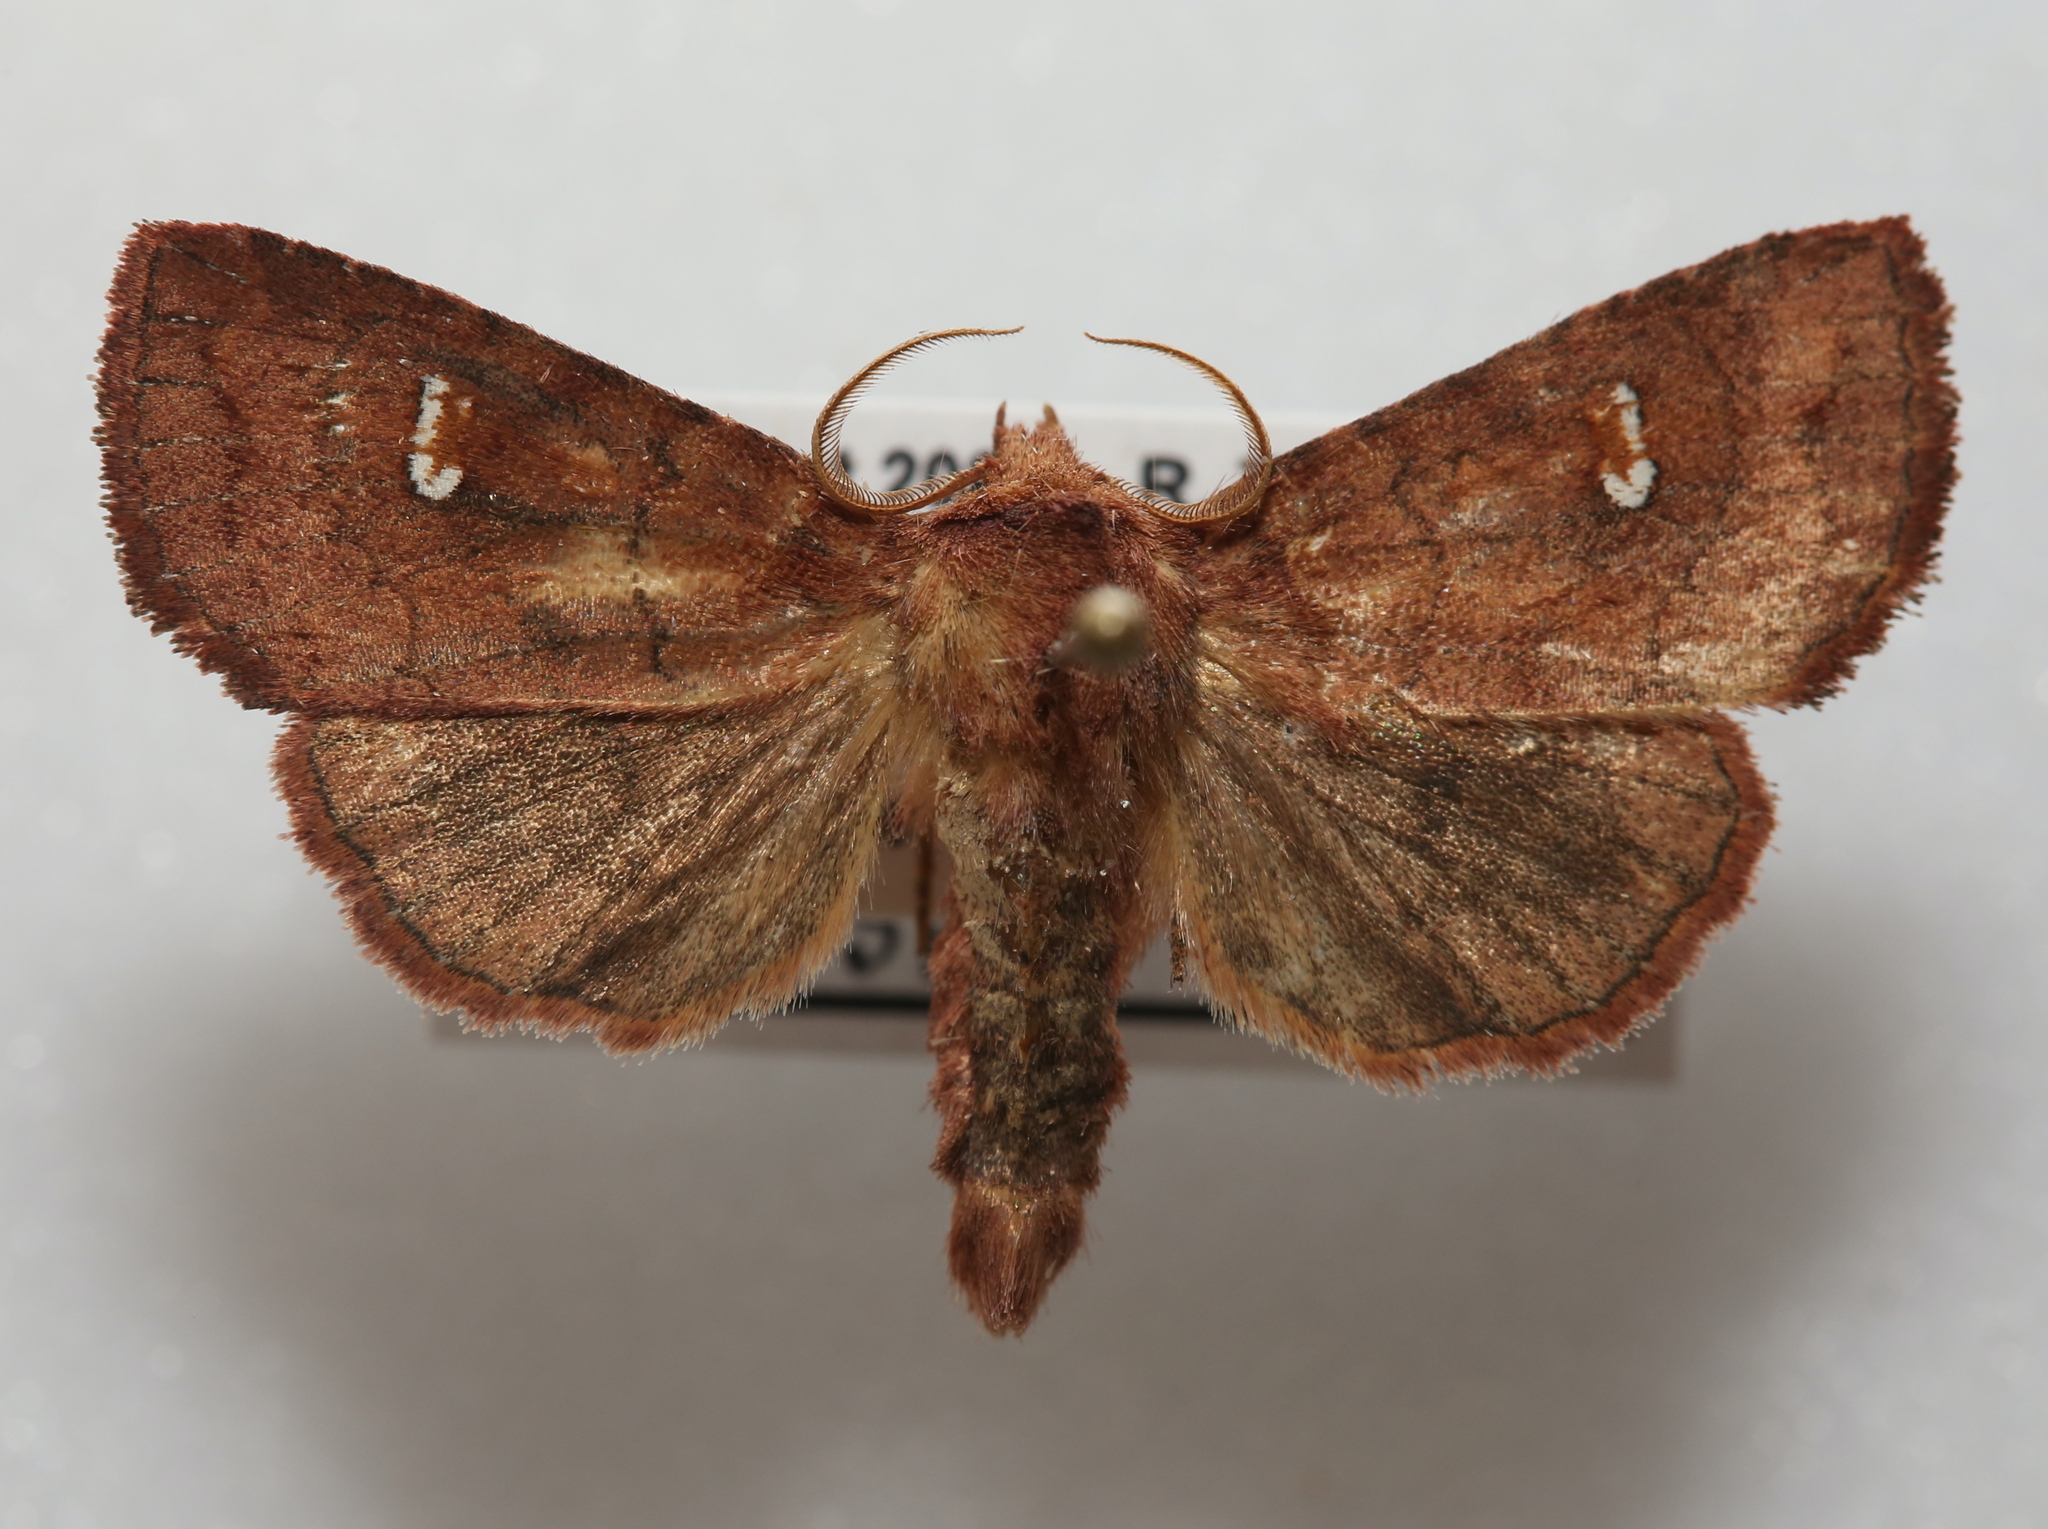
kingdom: Animalia
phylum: Arthropoda
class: Insecta
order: Lepidoptera
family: Noctuidae
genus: Tricholita
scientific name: Tricholita signata
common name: Signate quaker
